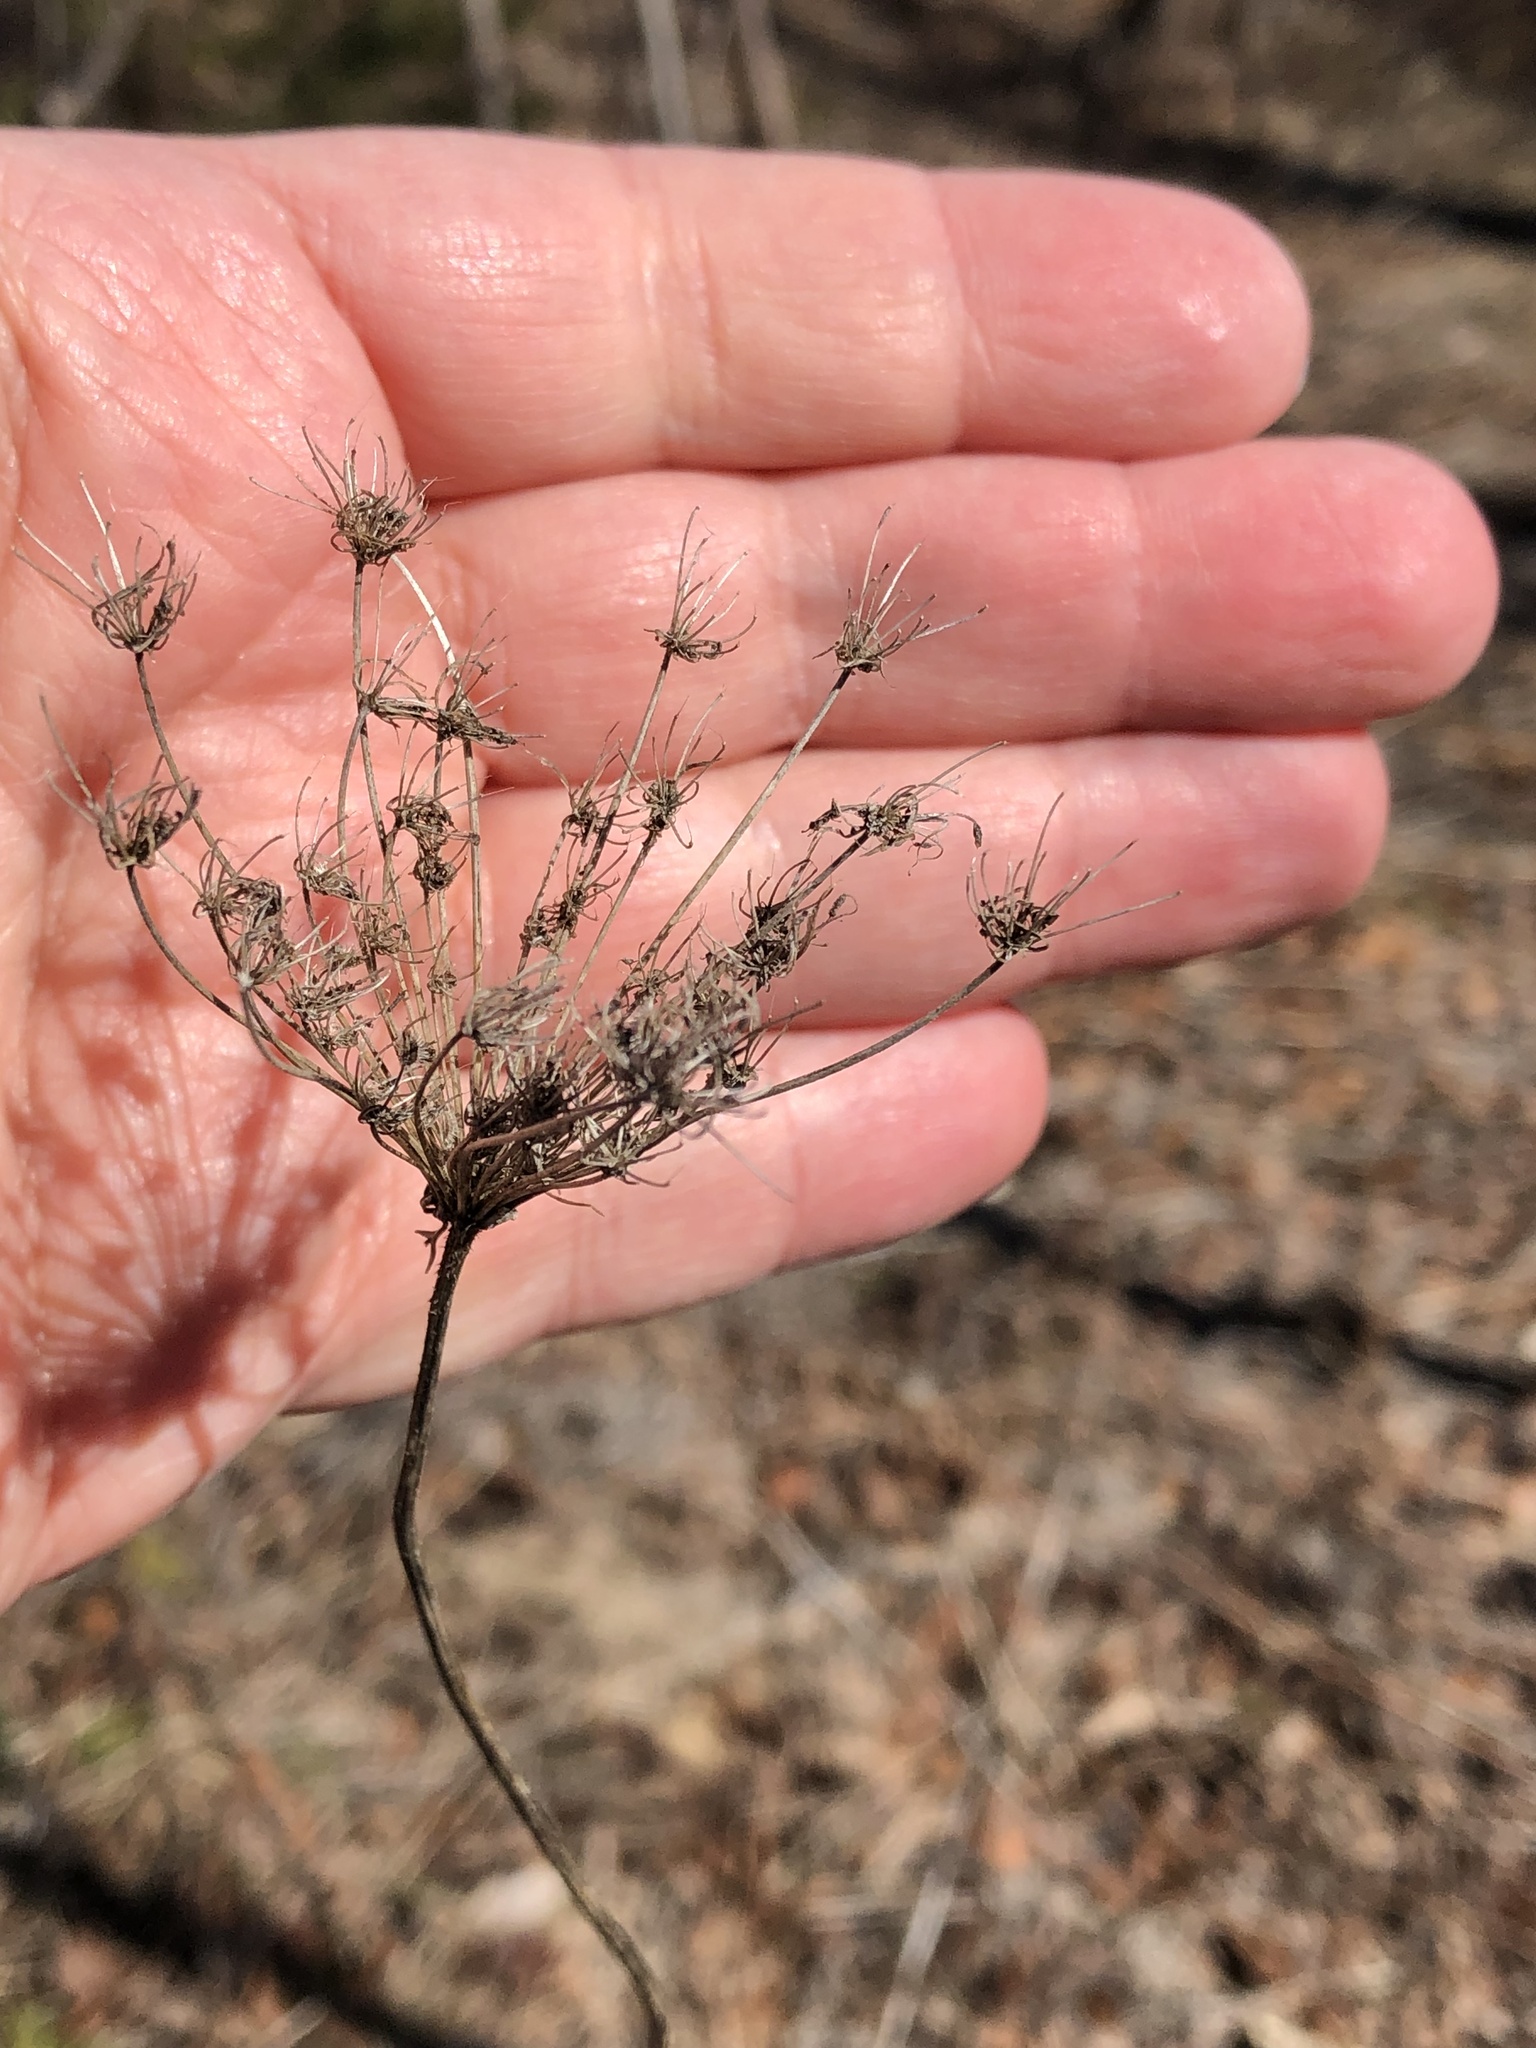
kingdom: Plantae
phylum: Tracheophyta
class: Magnoliopsida
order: Apiales
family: Apiaceae
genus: Daucus
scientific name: Daucus carota
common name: Wild carrot
